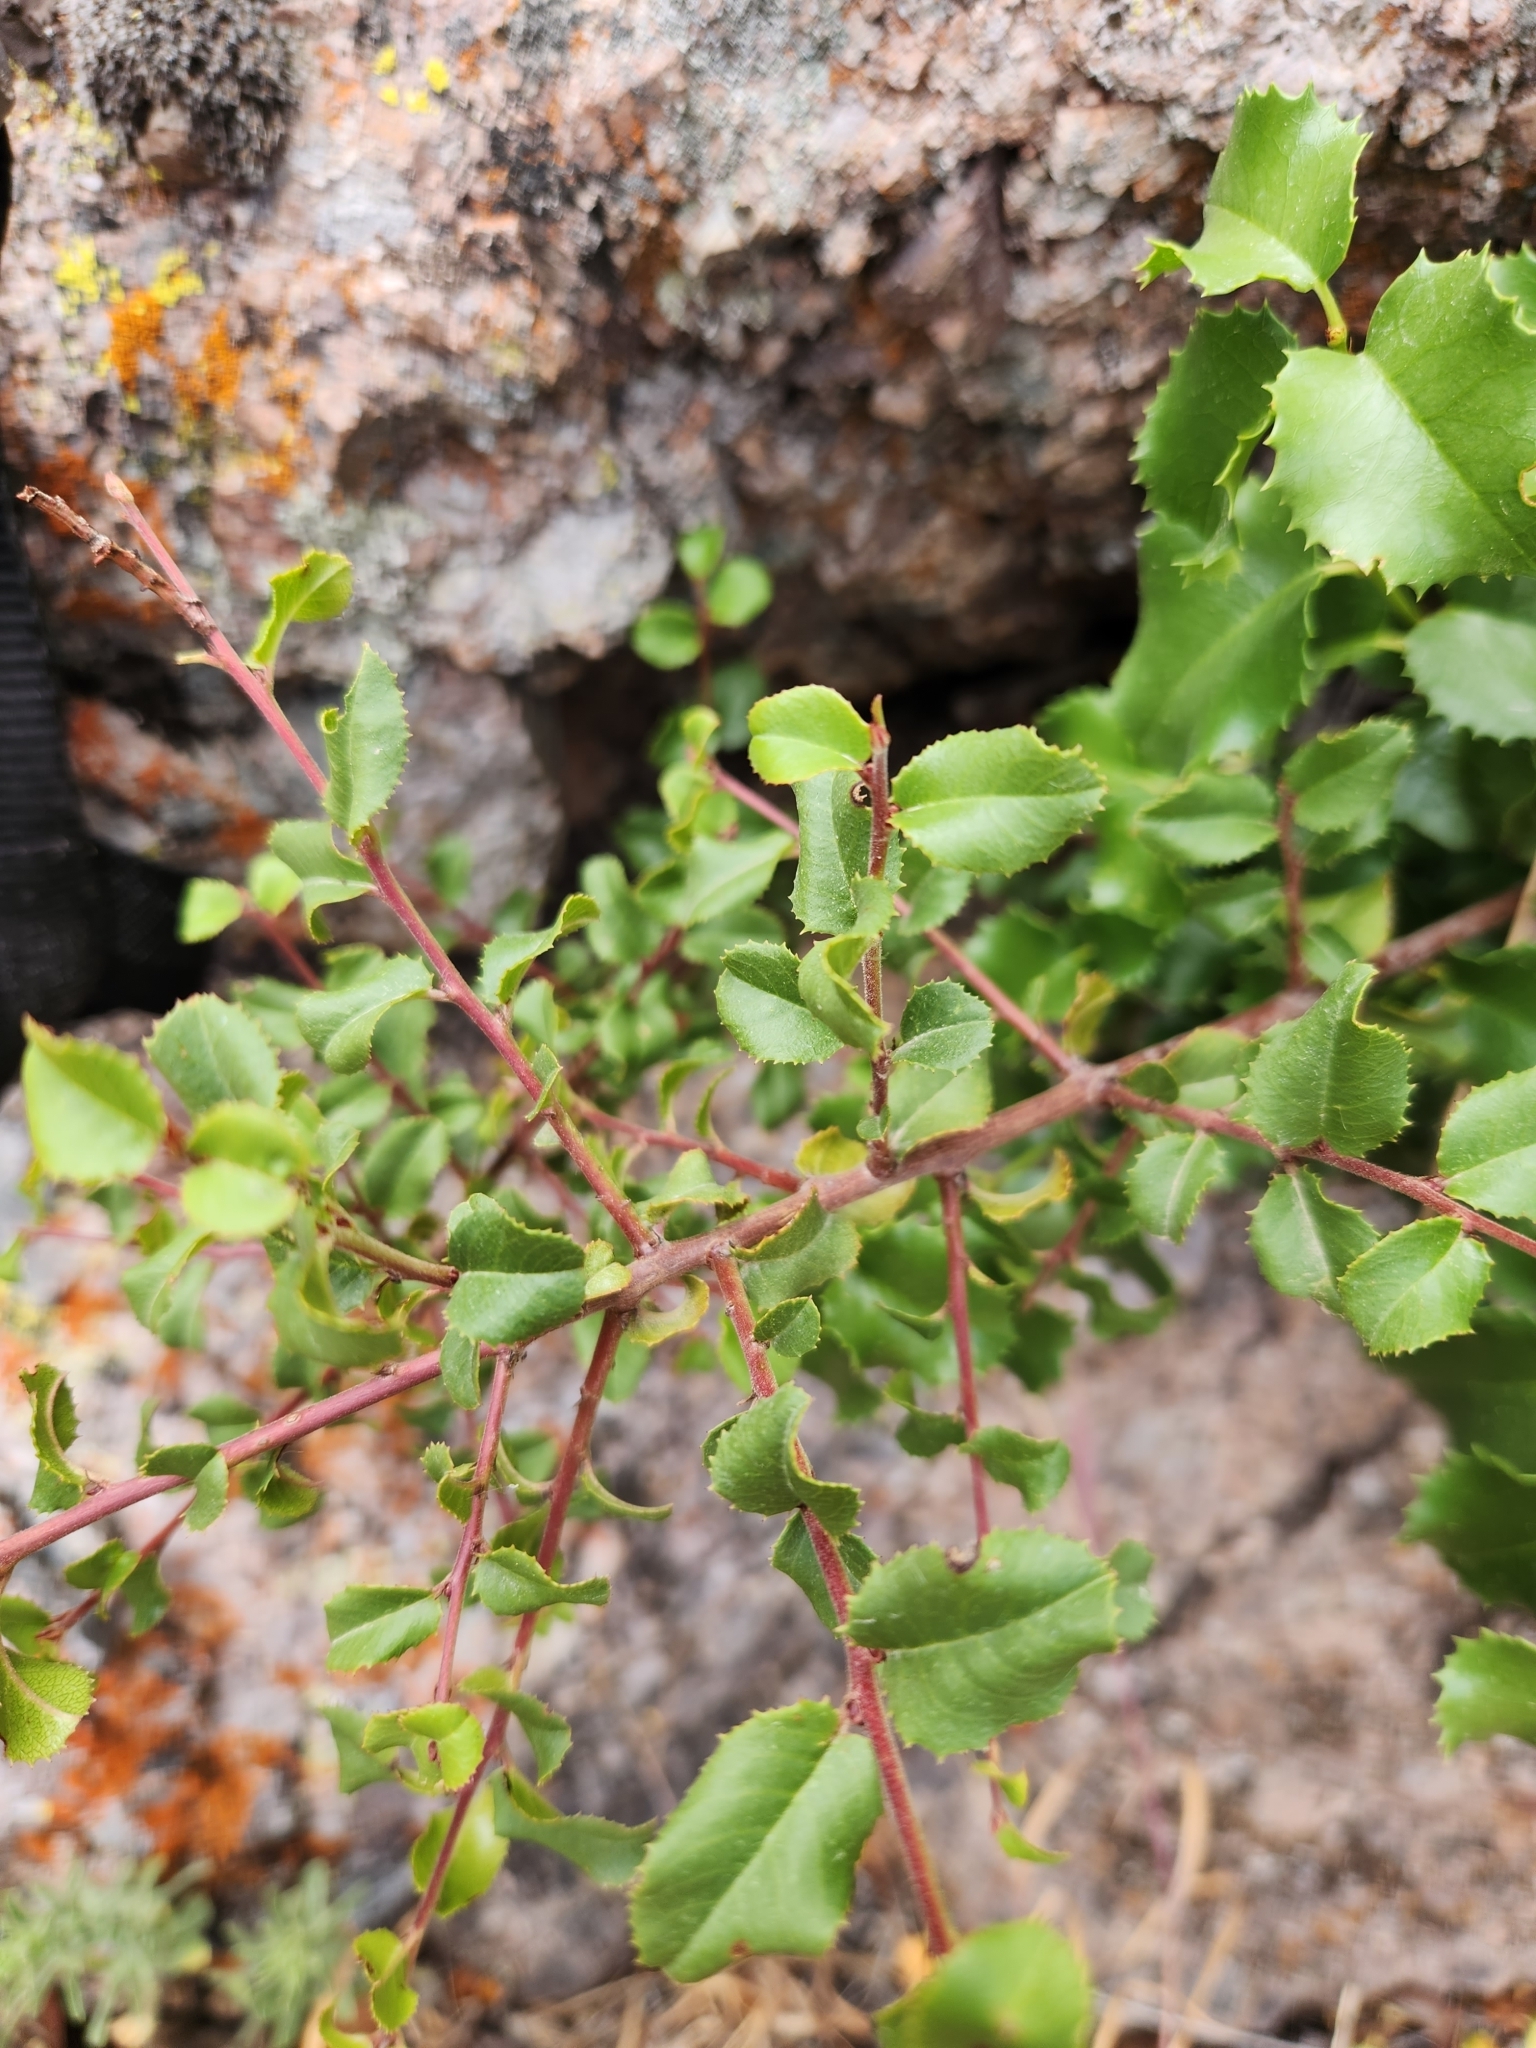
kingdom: Plantae
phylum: Tracheophyta
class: Magnoliopsida
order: Rosales
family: Rhamnaceae
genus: Endotropis
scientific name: Endotropis crocea
